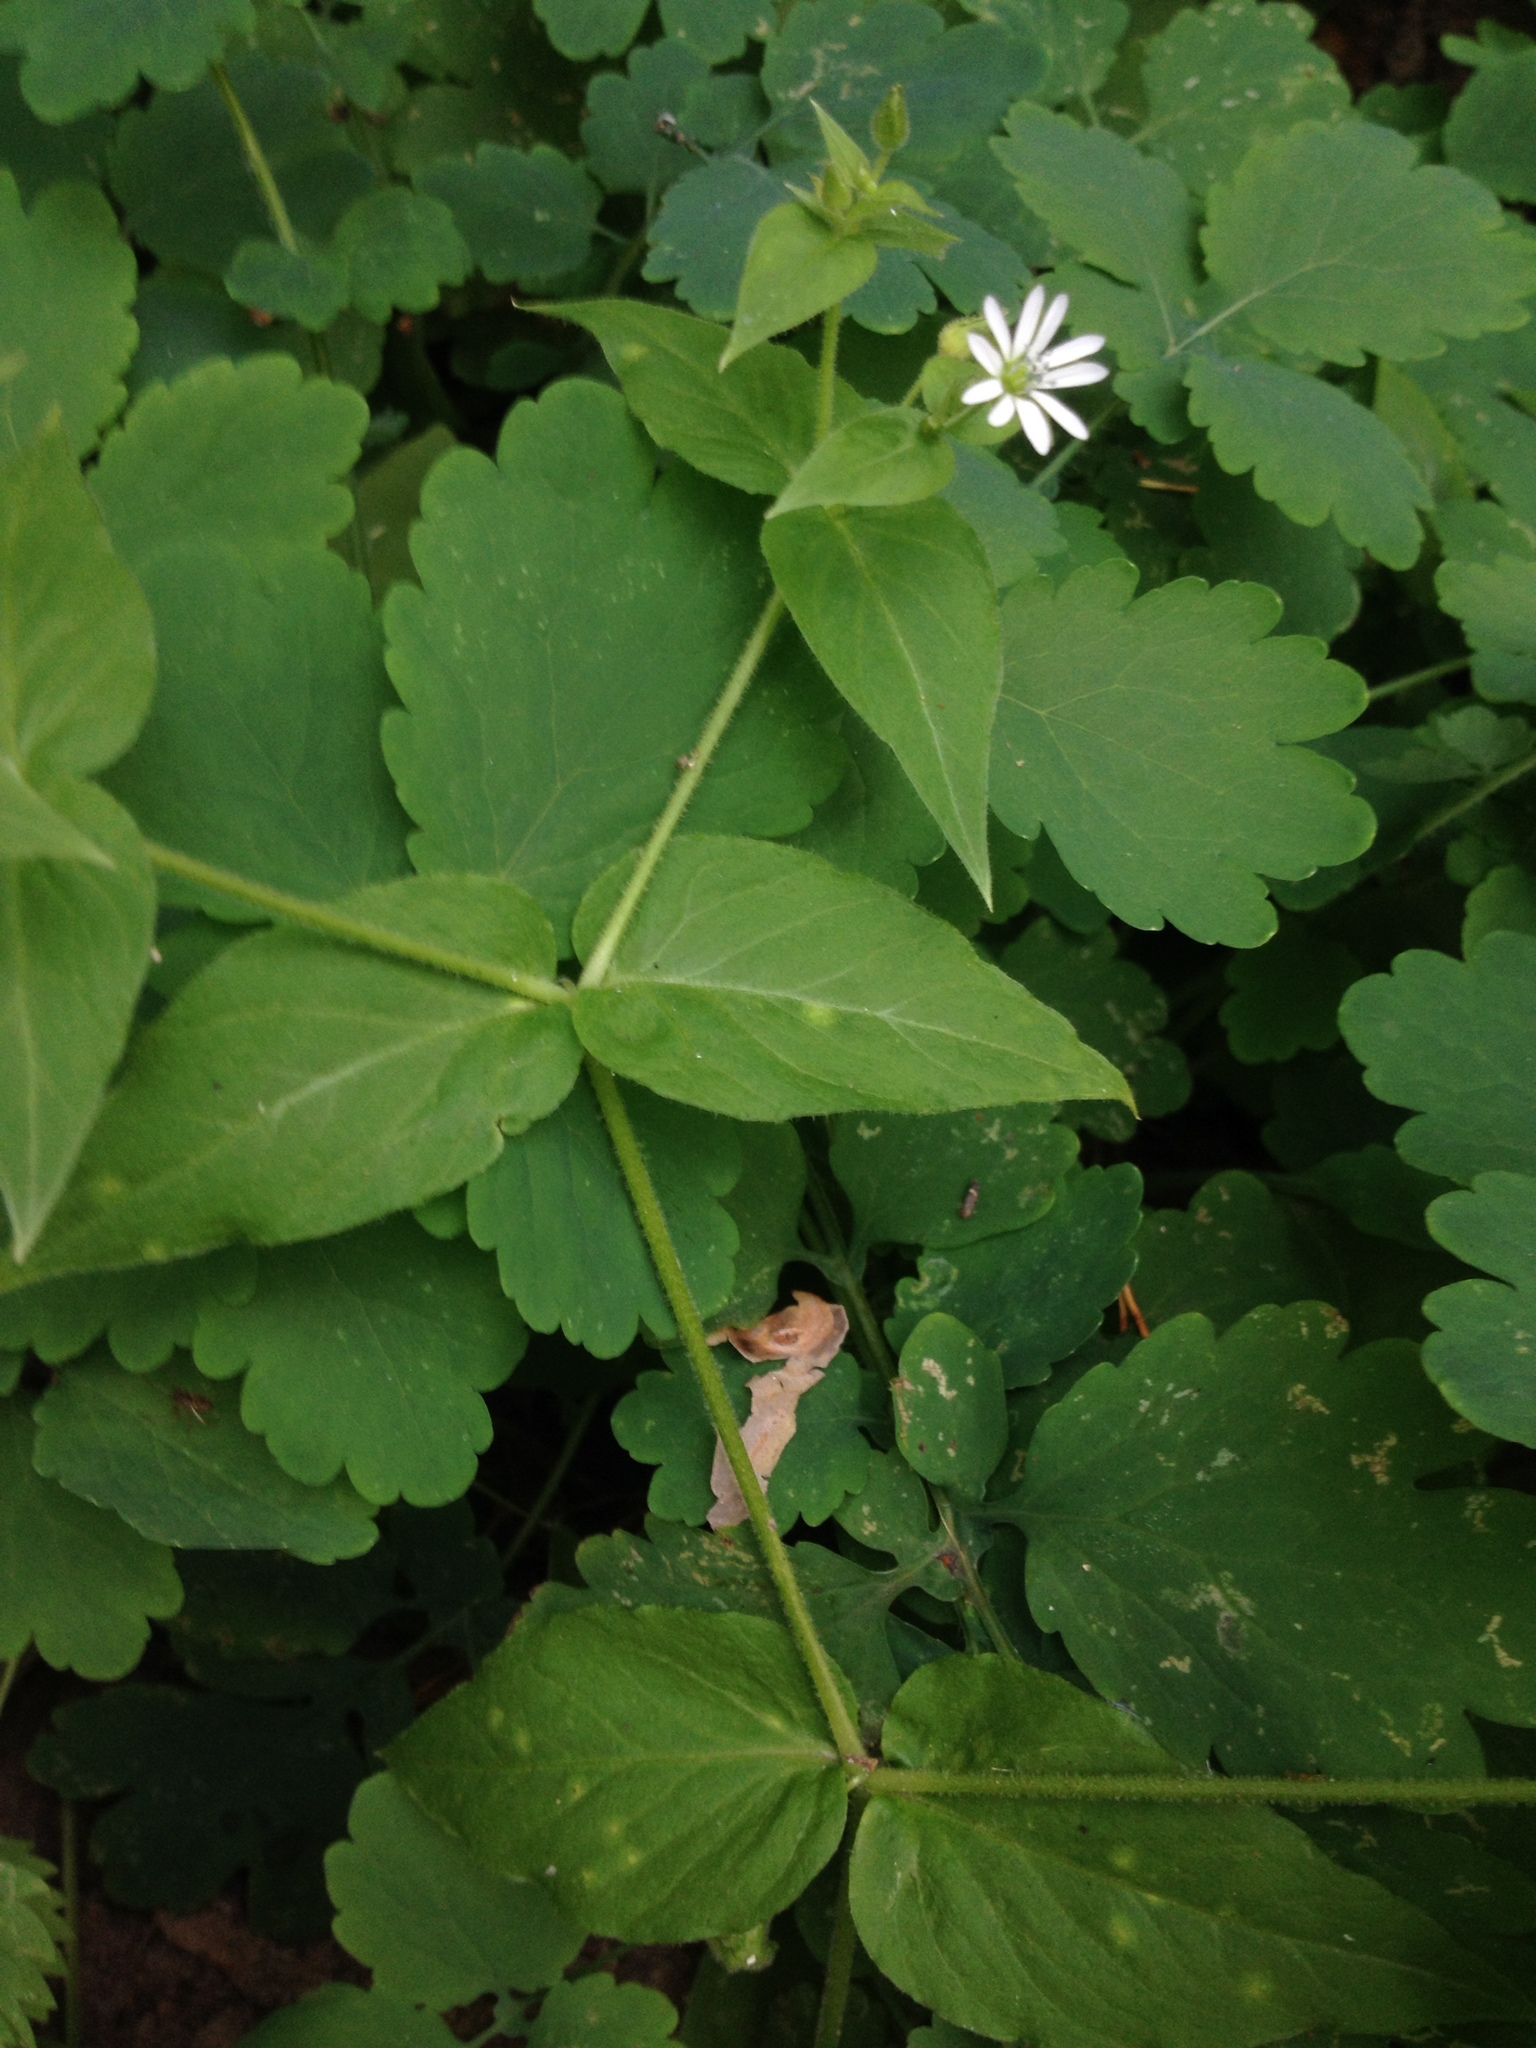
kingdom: Plantae
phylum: Tracheophyta
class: Magnoliopsida
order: Caryophyllales
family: Caryophyllaceae
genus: Stellaria
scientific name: Stellaria aquatica
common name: Water chickweed
